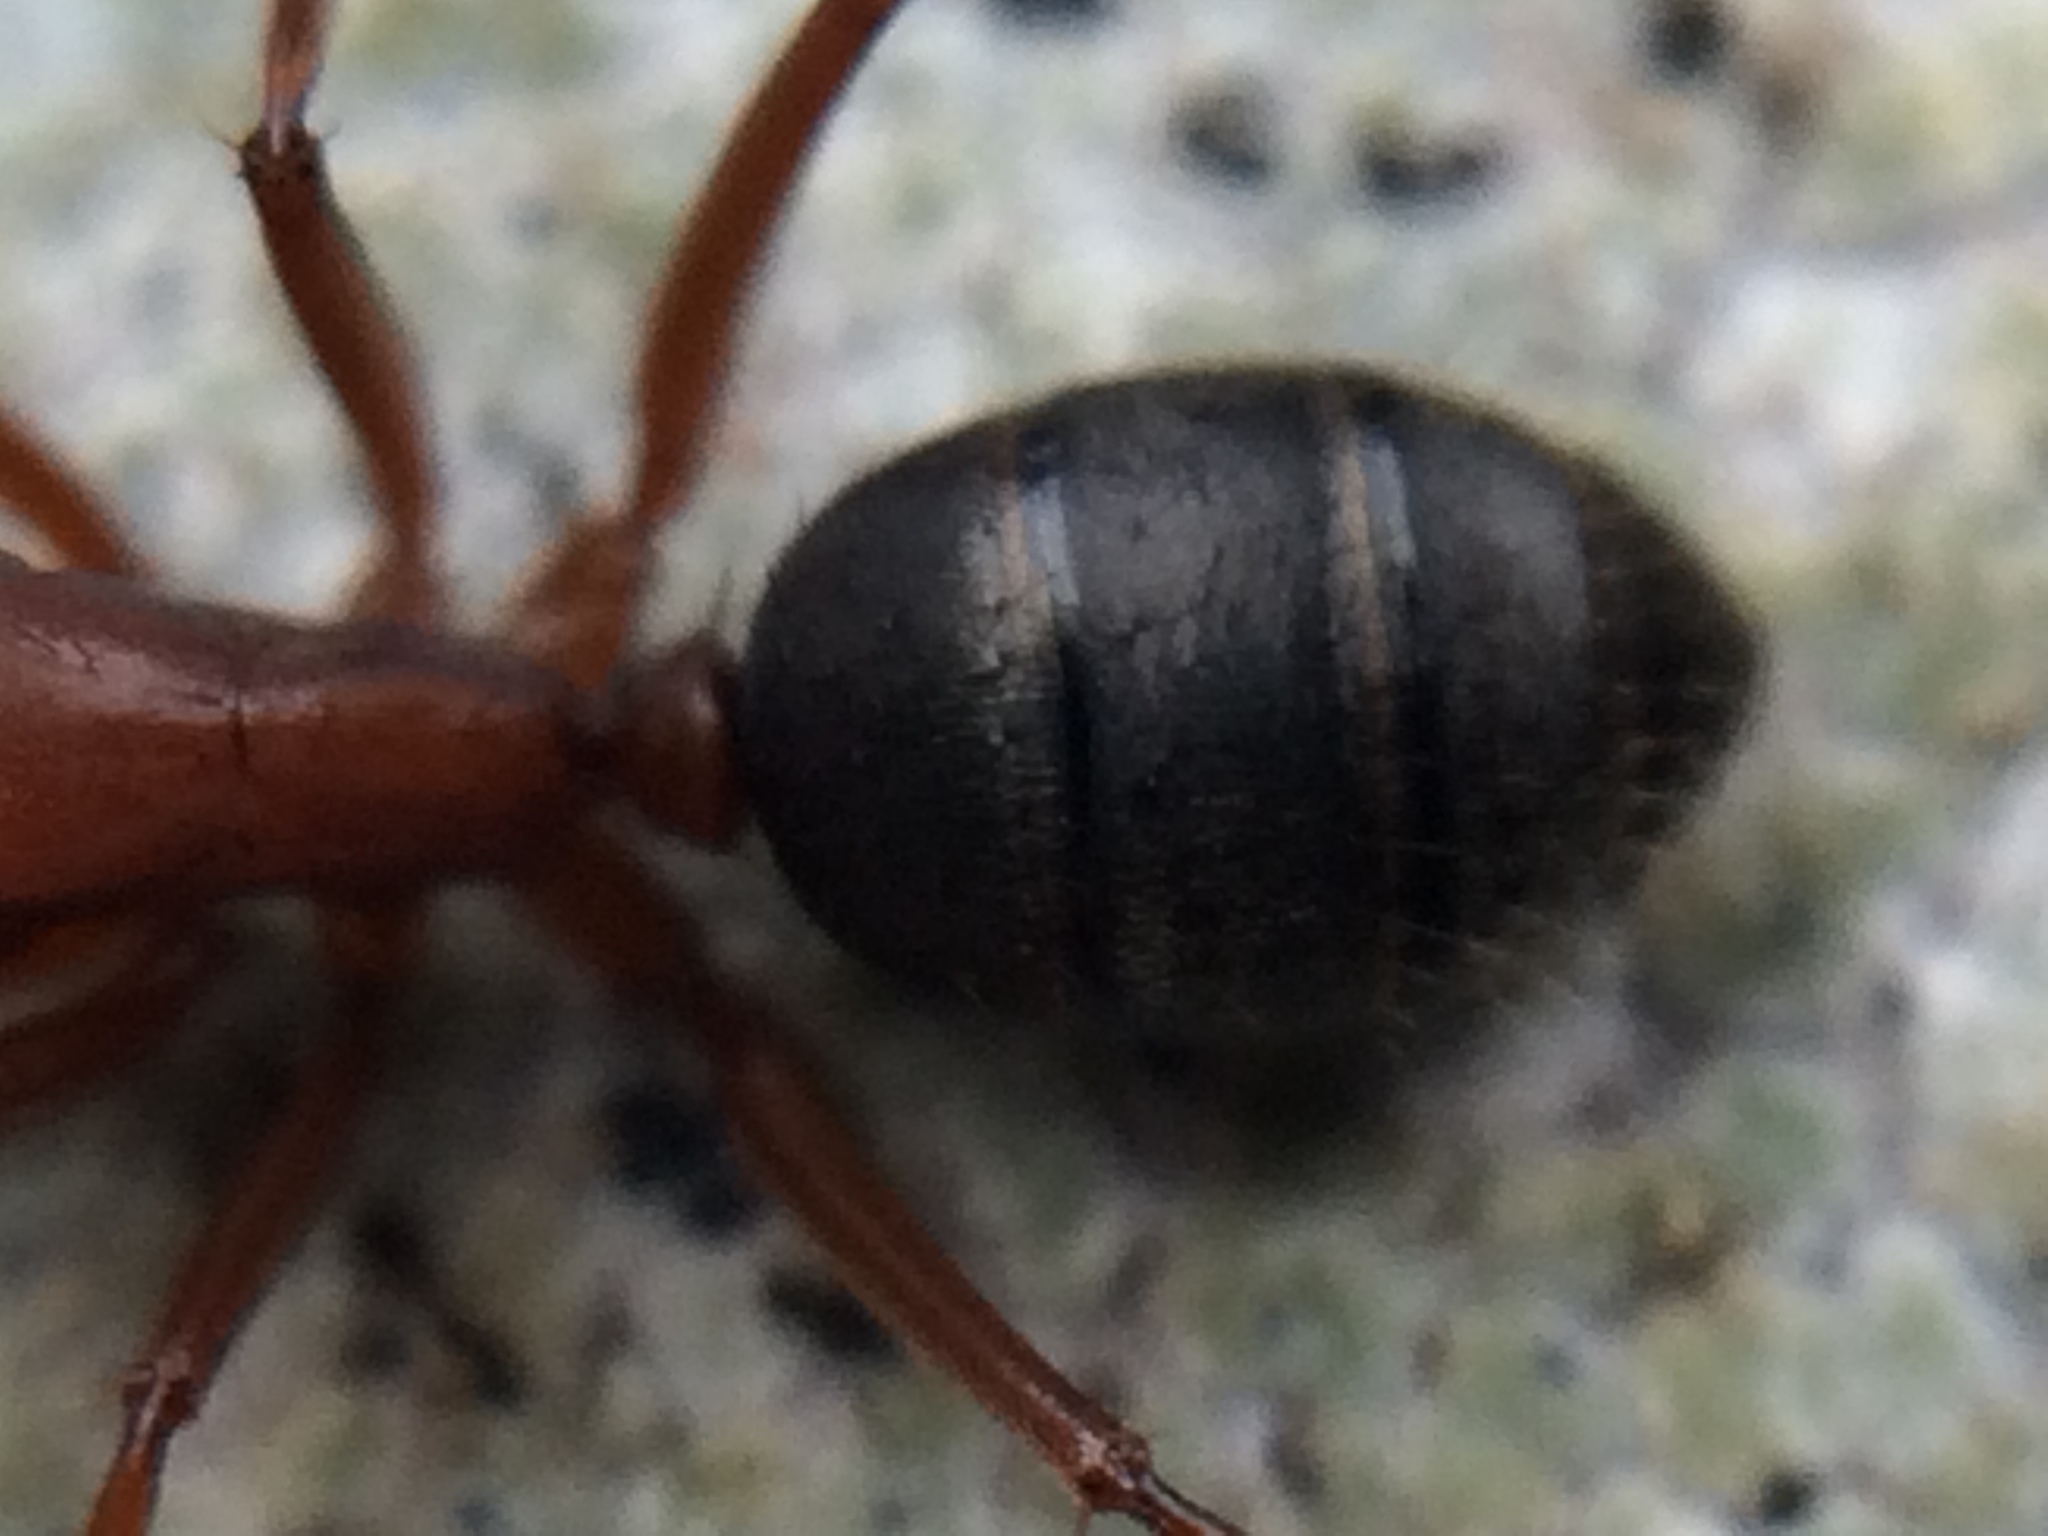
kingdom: Animalia
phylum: Arthropoda
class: Insecta
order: Hymenoptera
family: Formicidae
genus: Camponotus
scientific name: Camponotus vicinus
